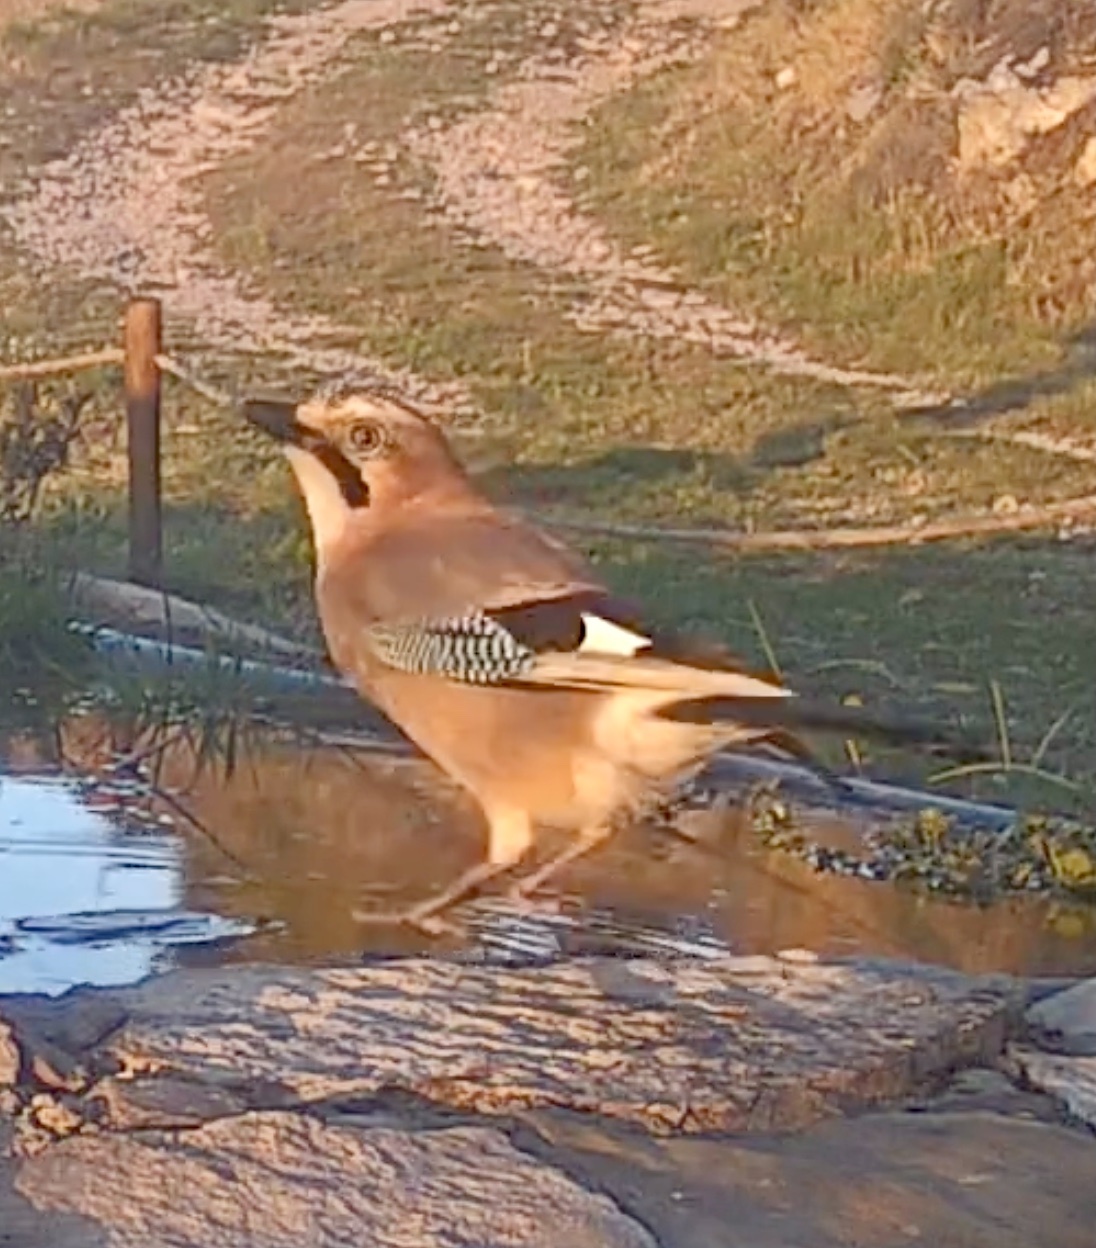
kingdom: Animalia
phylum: Chordata
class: Aves
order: Passeriformes
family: Corvidae
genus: Garrulus
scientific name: Garrulus glandarius
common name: Eurasian jay
